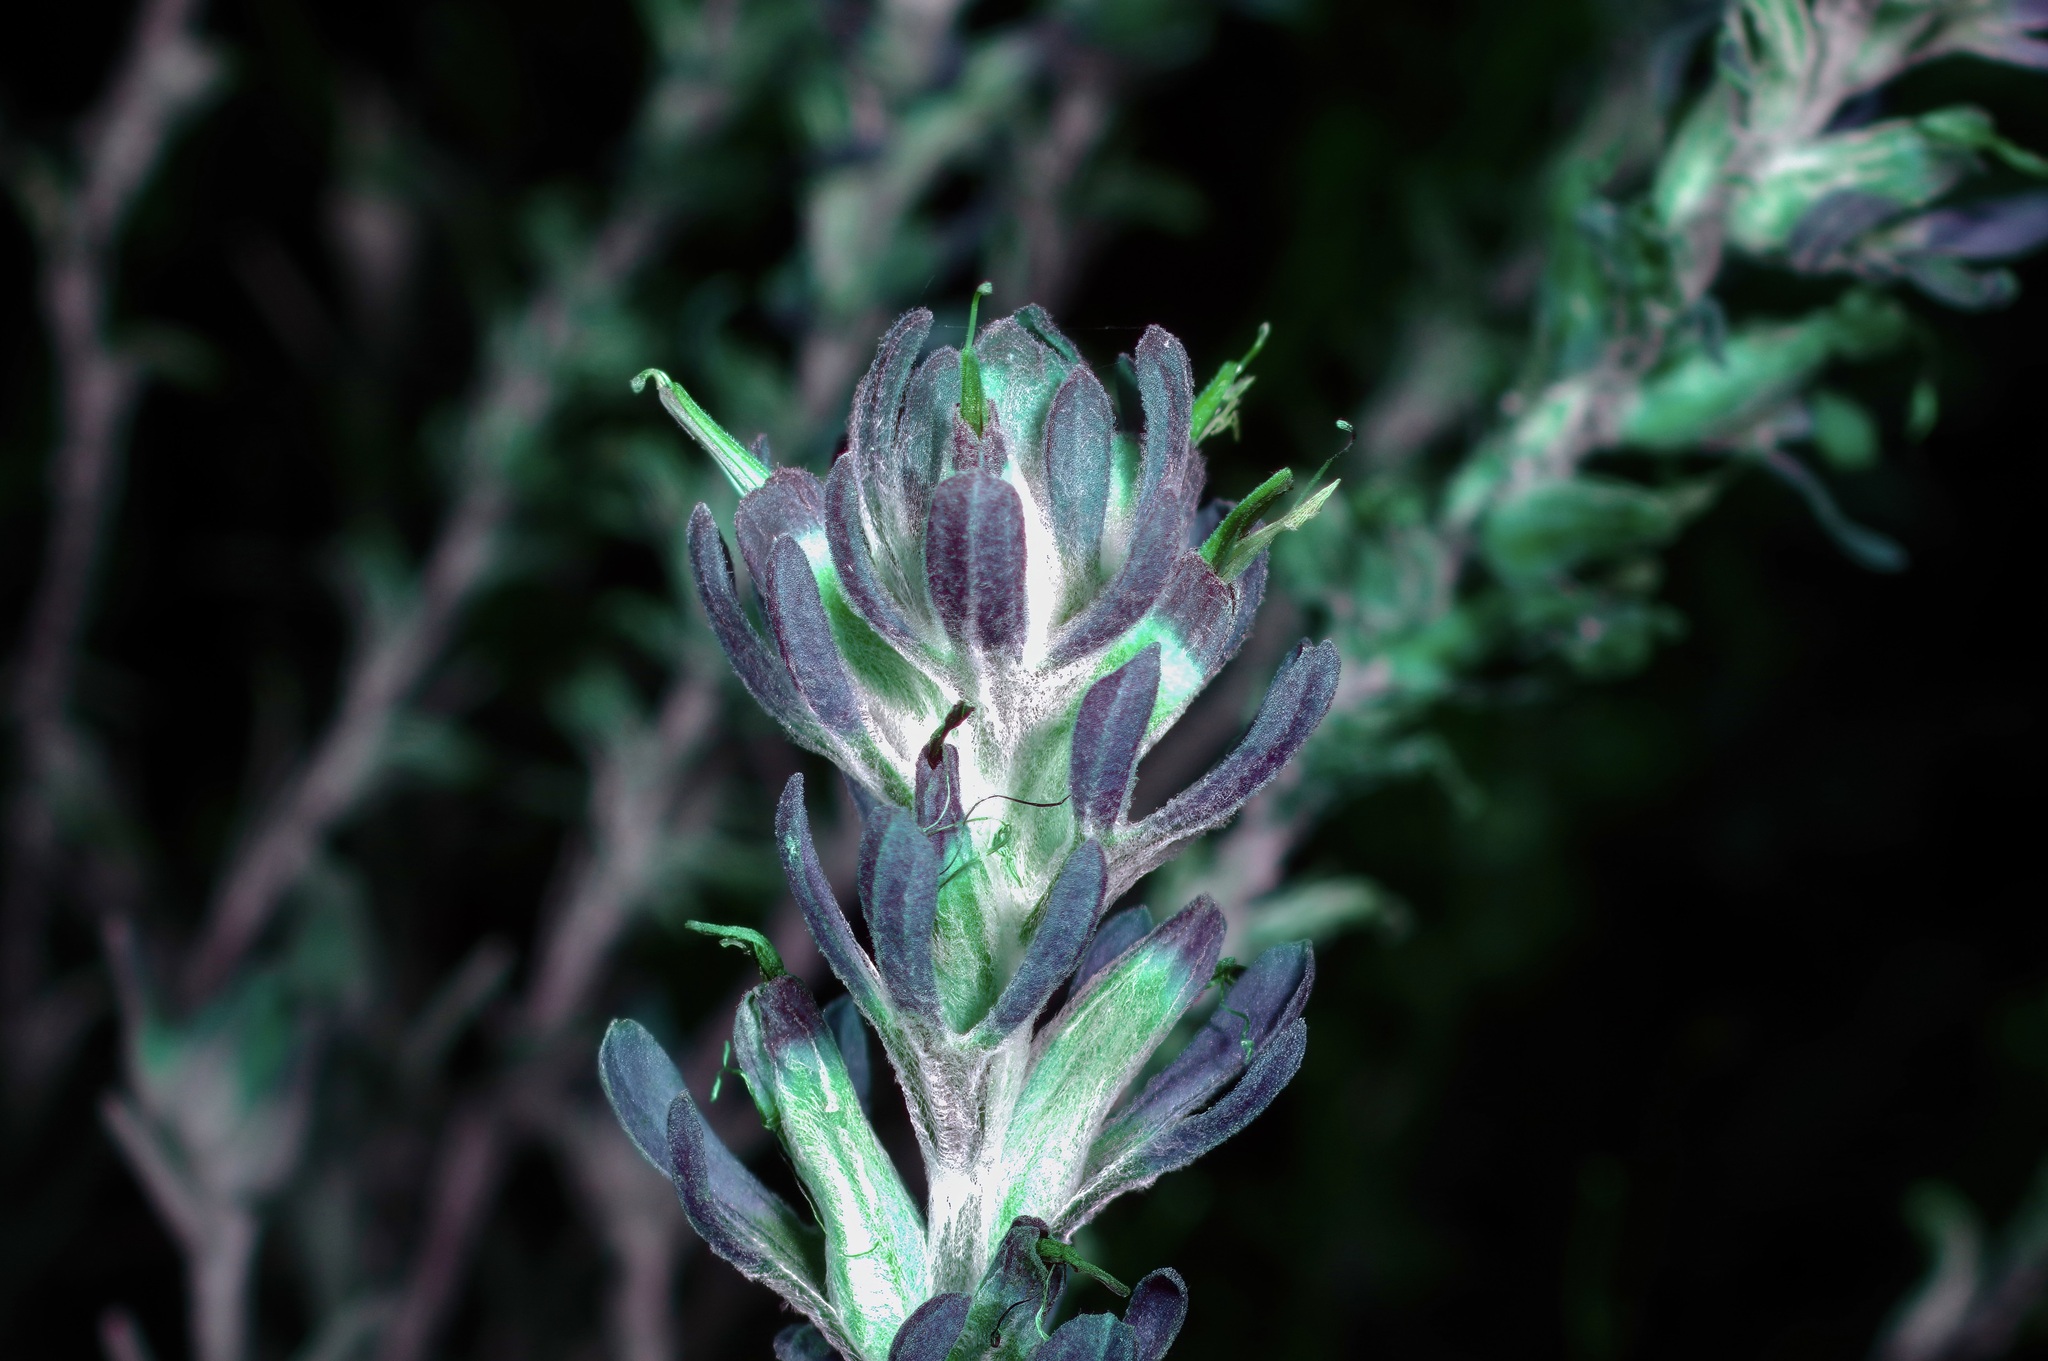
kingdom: Plantae
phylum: Tracheophyta
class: Magnoliopsida
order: Lamiales
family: Orobanchaceae
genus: Castilleja
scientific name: Castilleja lanata
